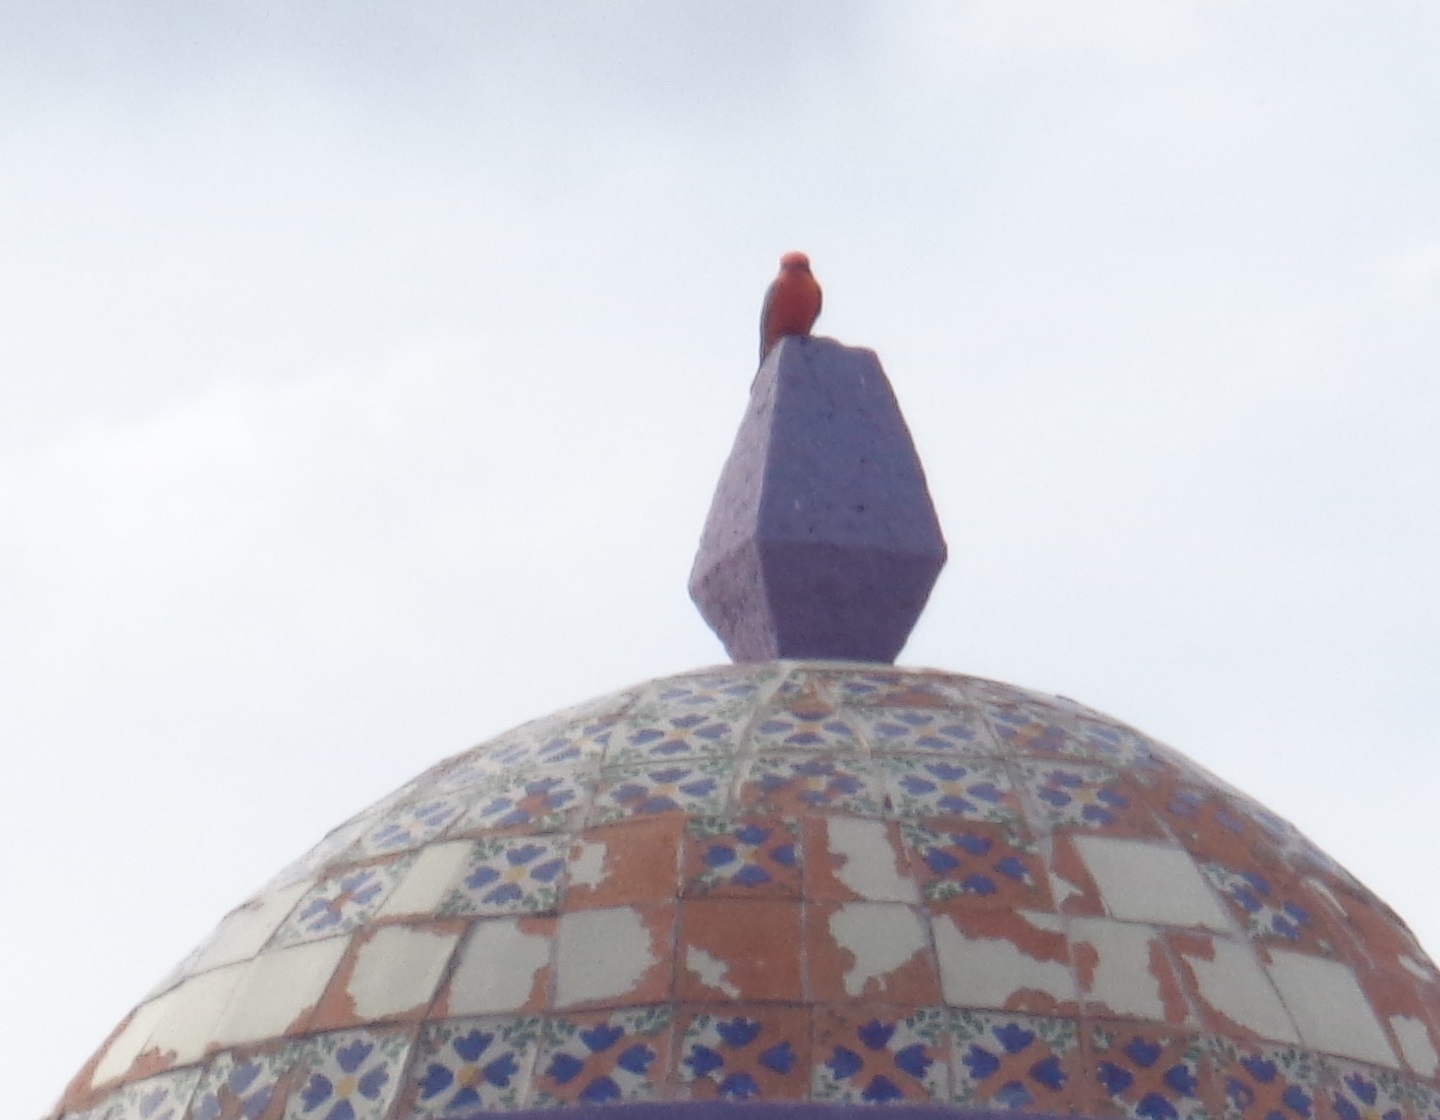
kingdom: Animalia
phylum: Chordata
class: Aves
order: Passeriformes
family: Tyrannidae
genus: Pyrocephalus
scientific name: Pyrocephalus rubinus
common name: Vermilion flycatcher
